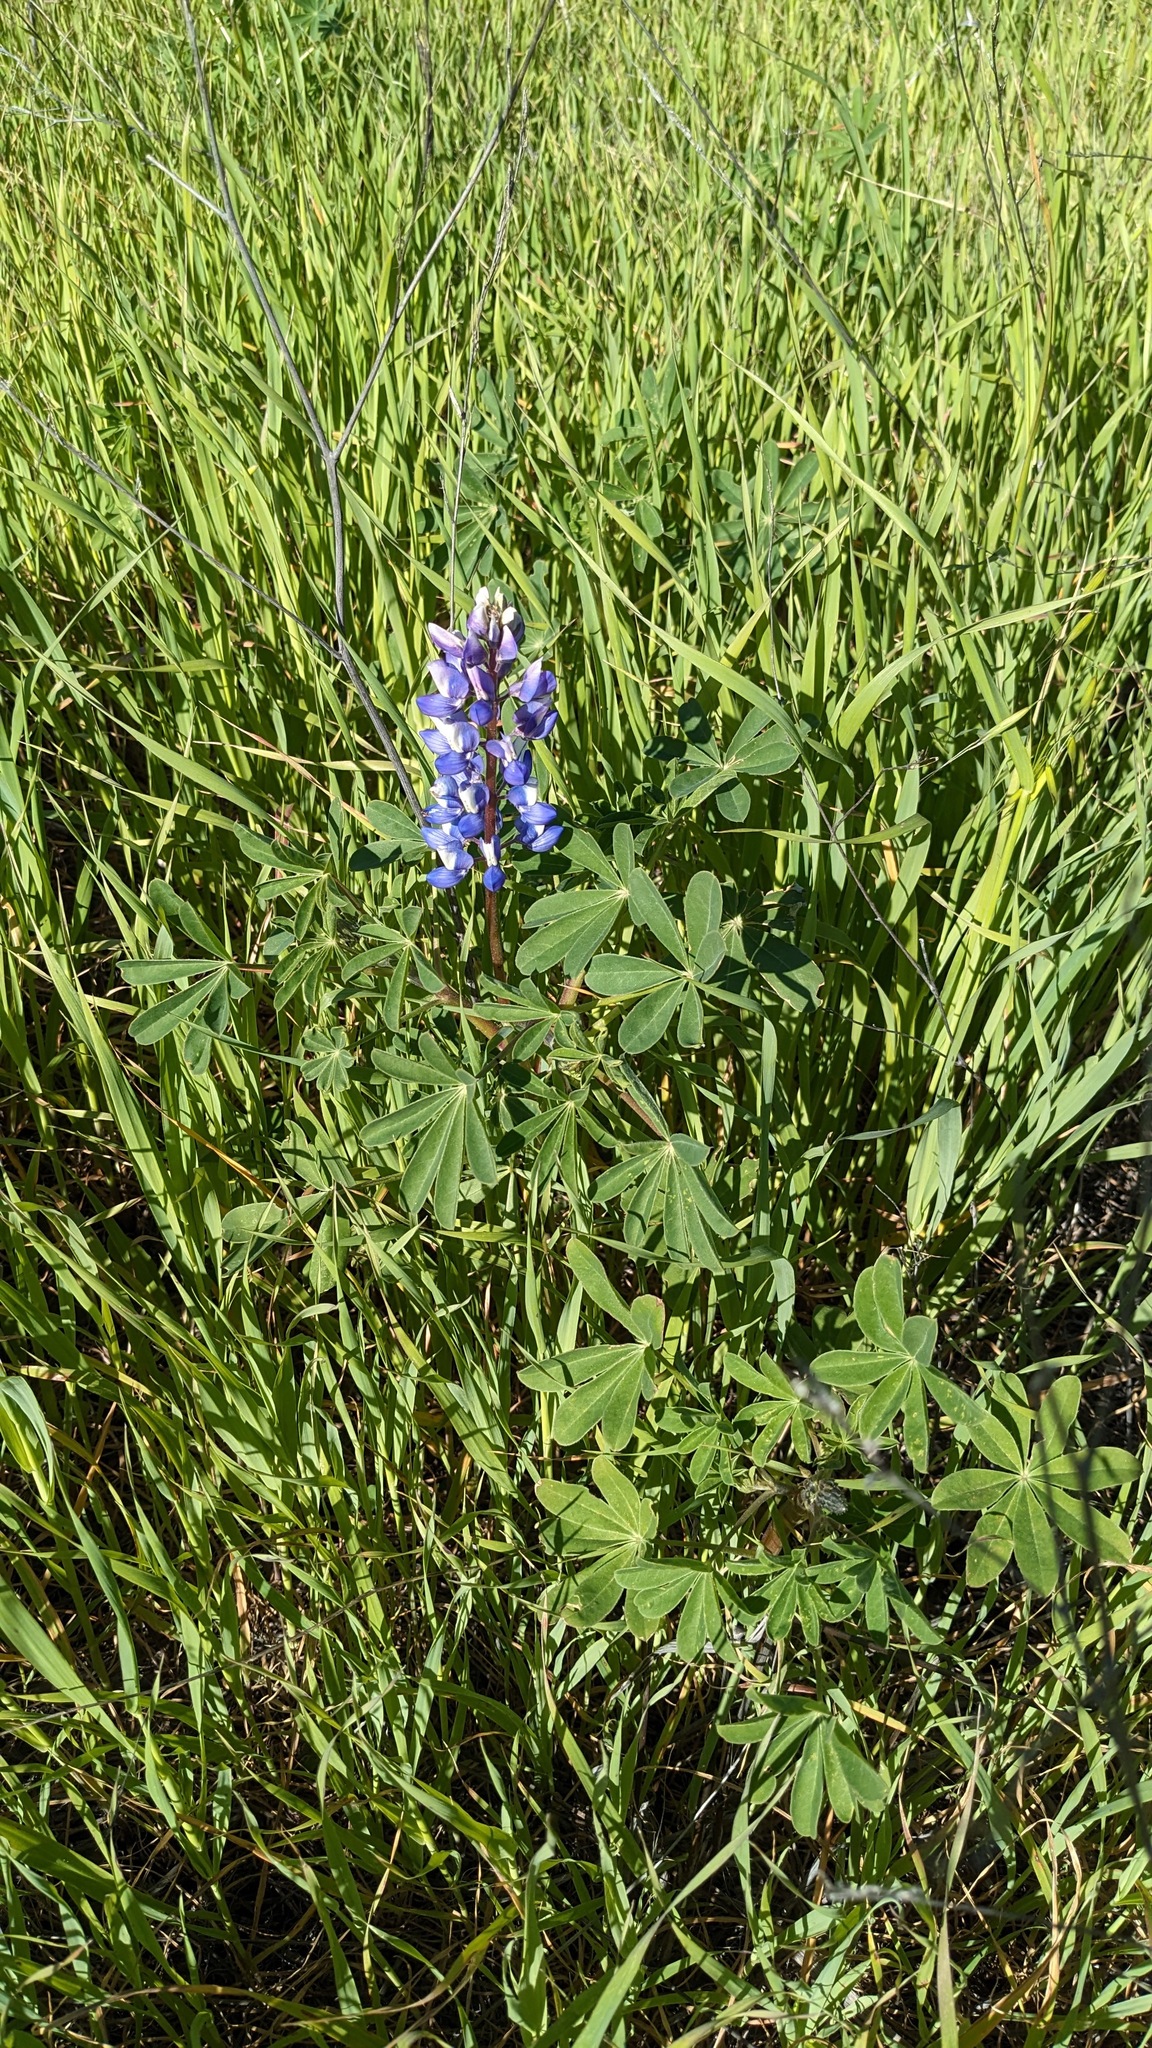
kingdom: Plantae
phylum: Tracheophyta
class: Magnoliopsida
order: Fabales
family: Fabaceae
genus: Lupinus
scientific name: Lupinus succulentus
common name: Arroyo lupine
